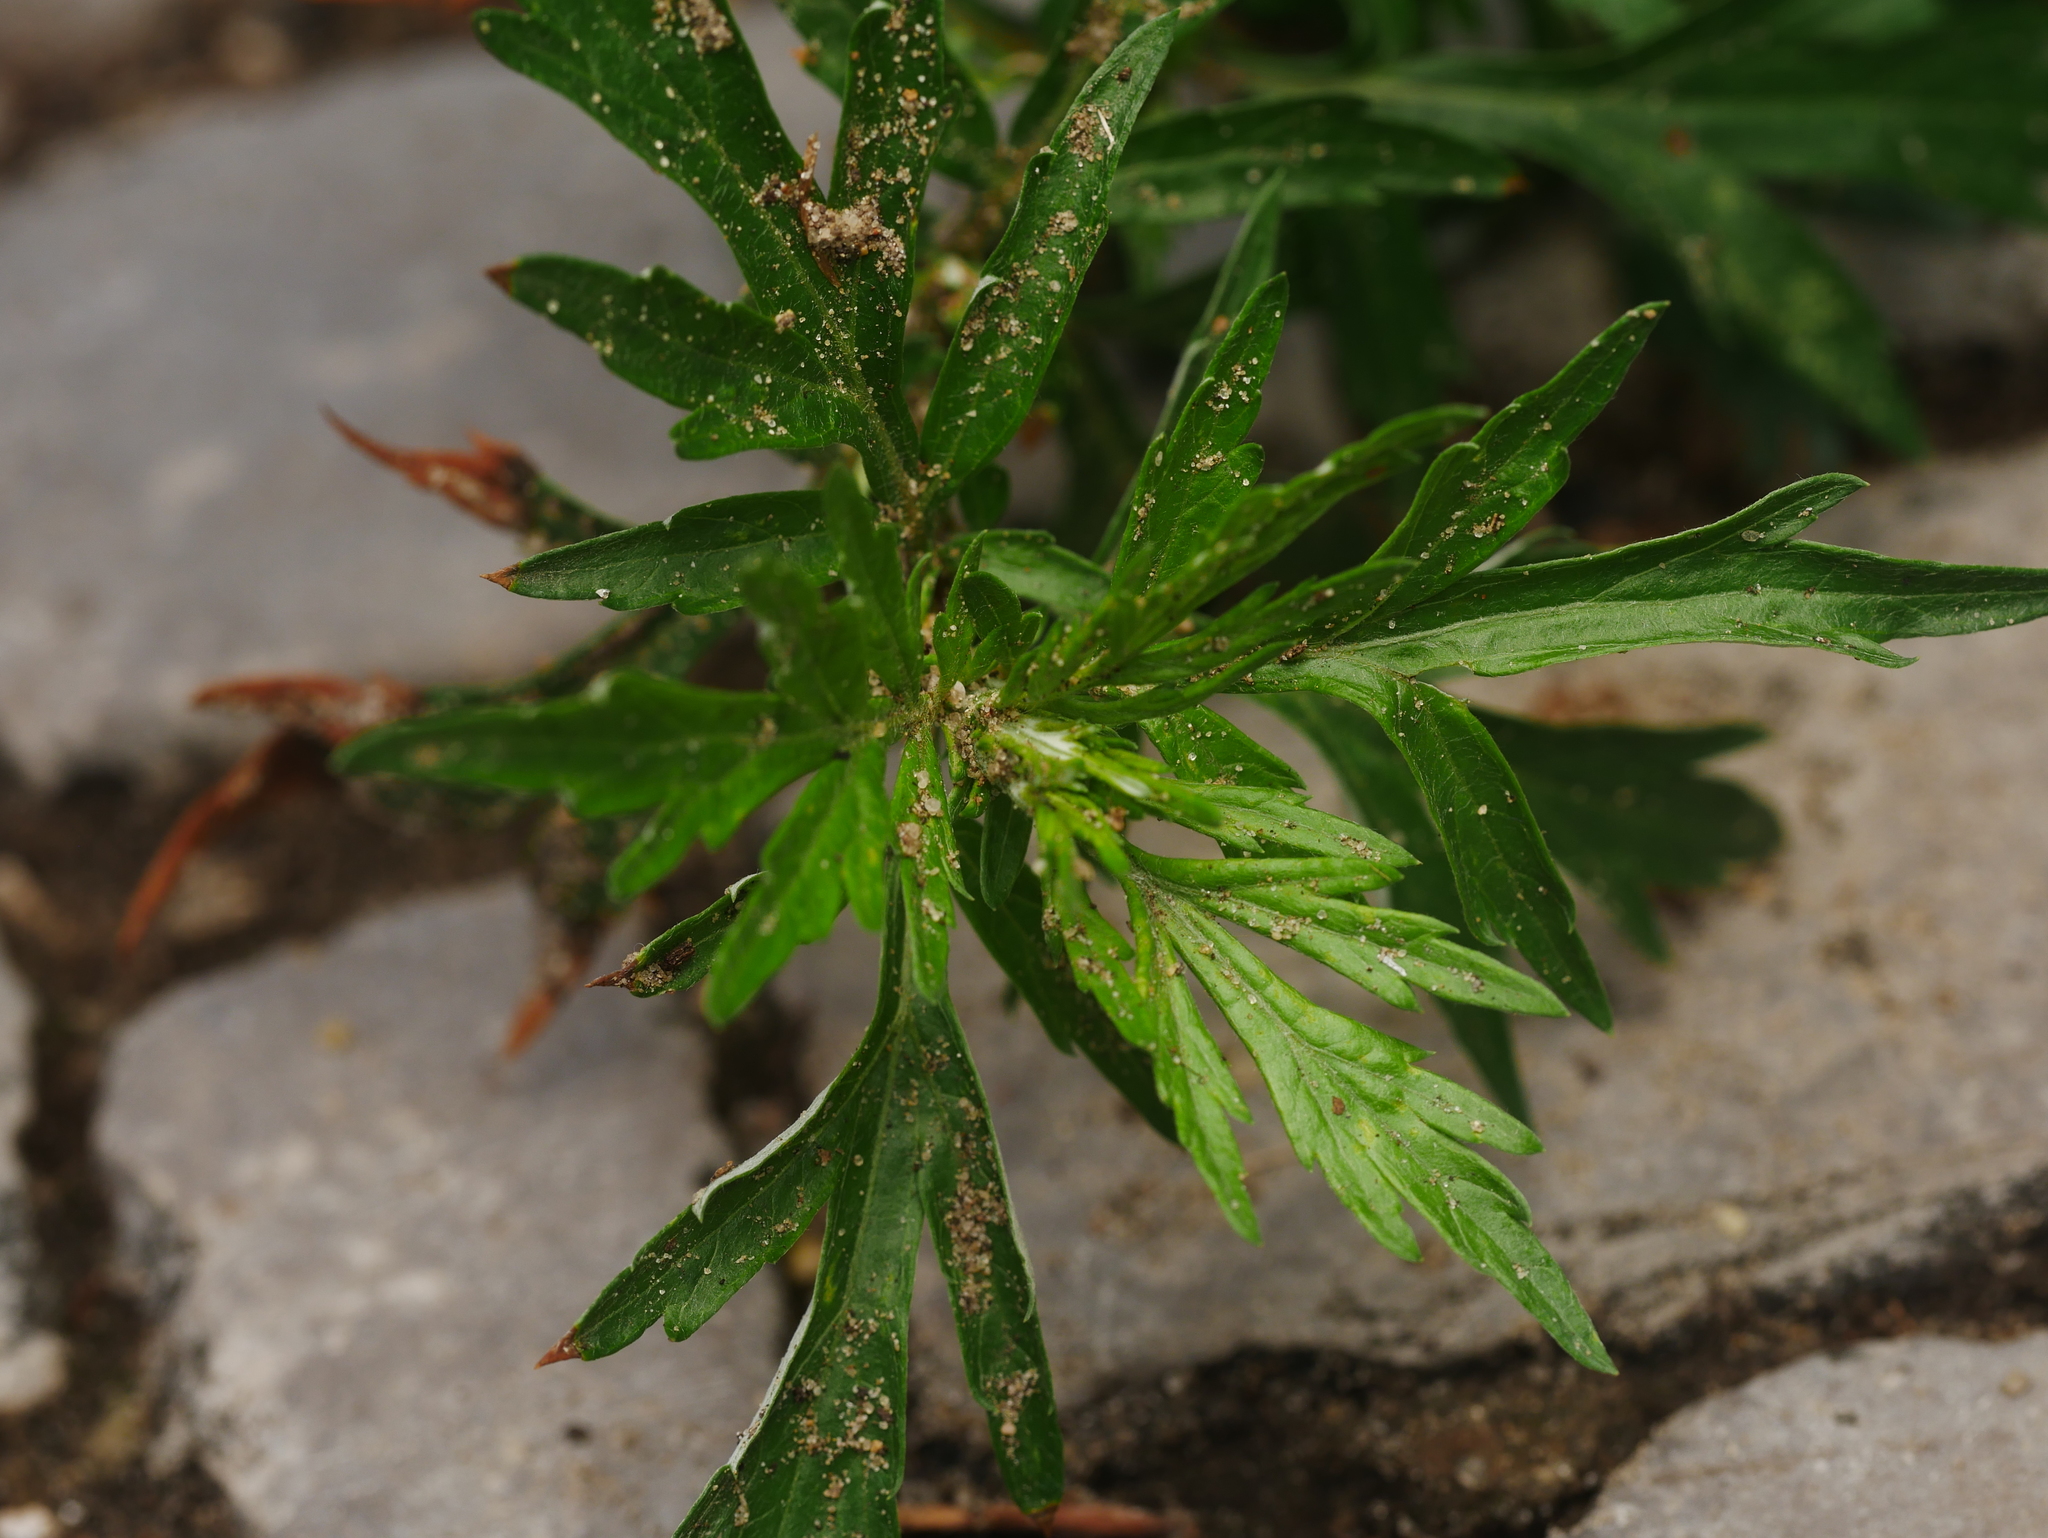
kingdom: Plantae
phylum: Tracheophyta
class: Magnoliopsida
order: Asterales
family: Asteraceae
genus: Artemisia
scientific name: Artemisia vulgaris
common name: Mugwort
